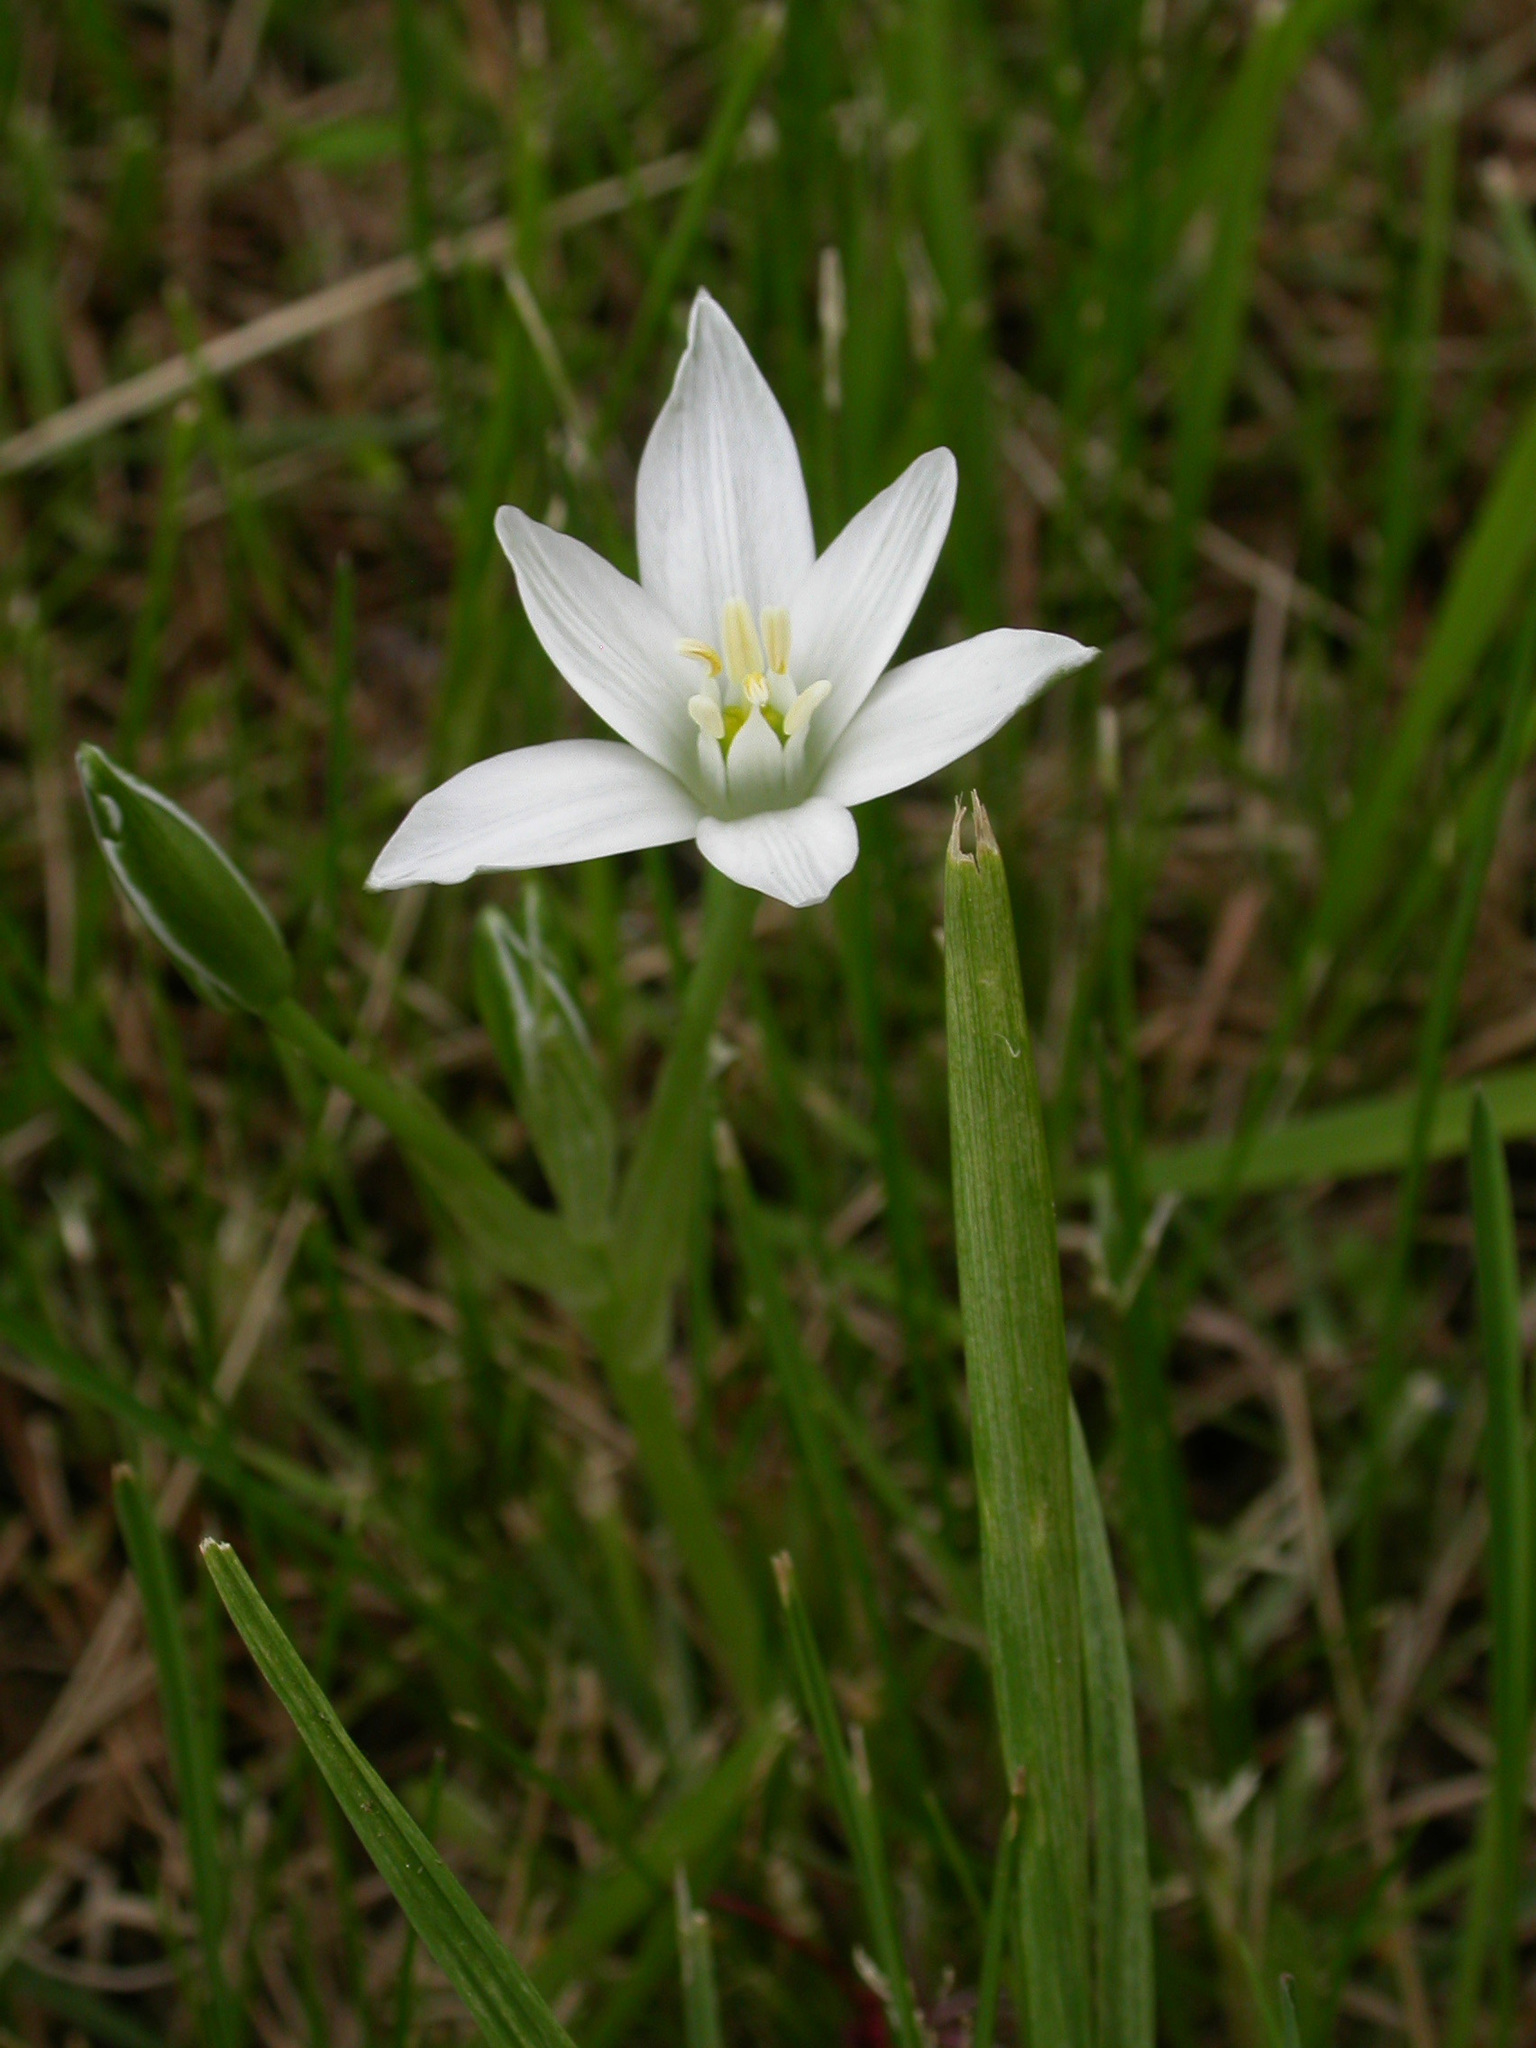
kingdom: Plantae
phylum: Tracheophyta
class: Liliopsida
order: Asparagales
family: Asparagaceae
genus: Ornithogalum
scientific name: Ornithogalum umbellatum
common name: Garden star-of-bethlehem
